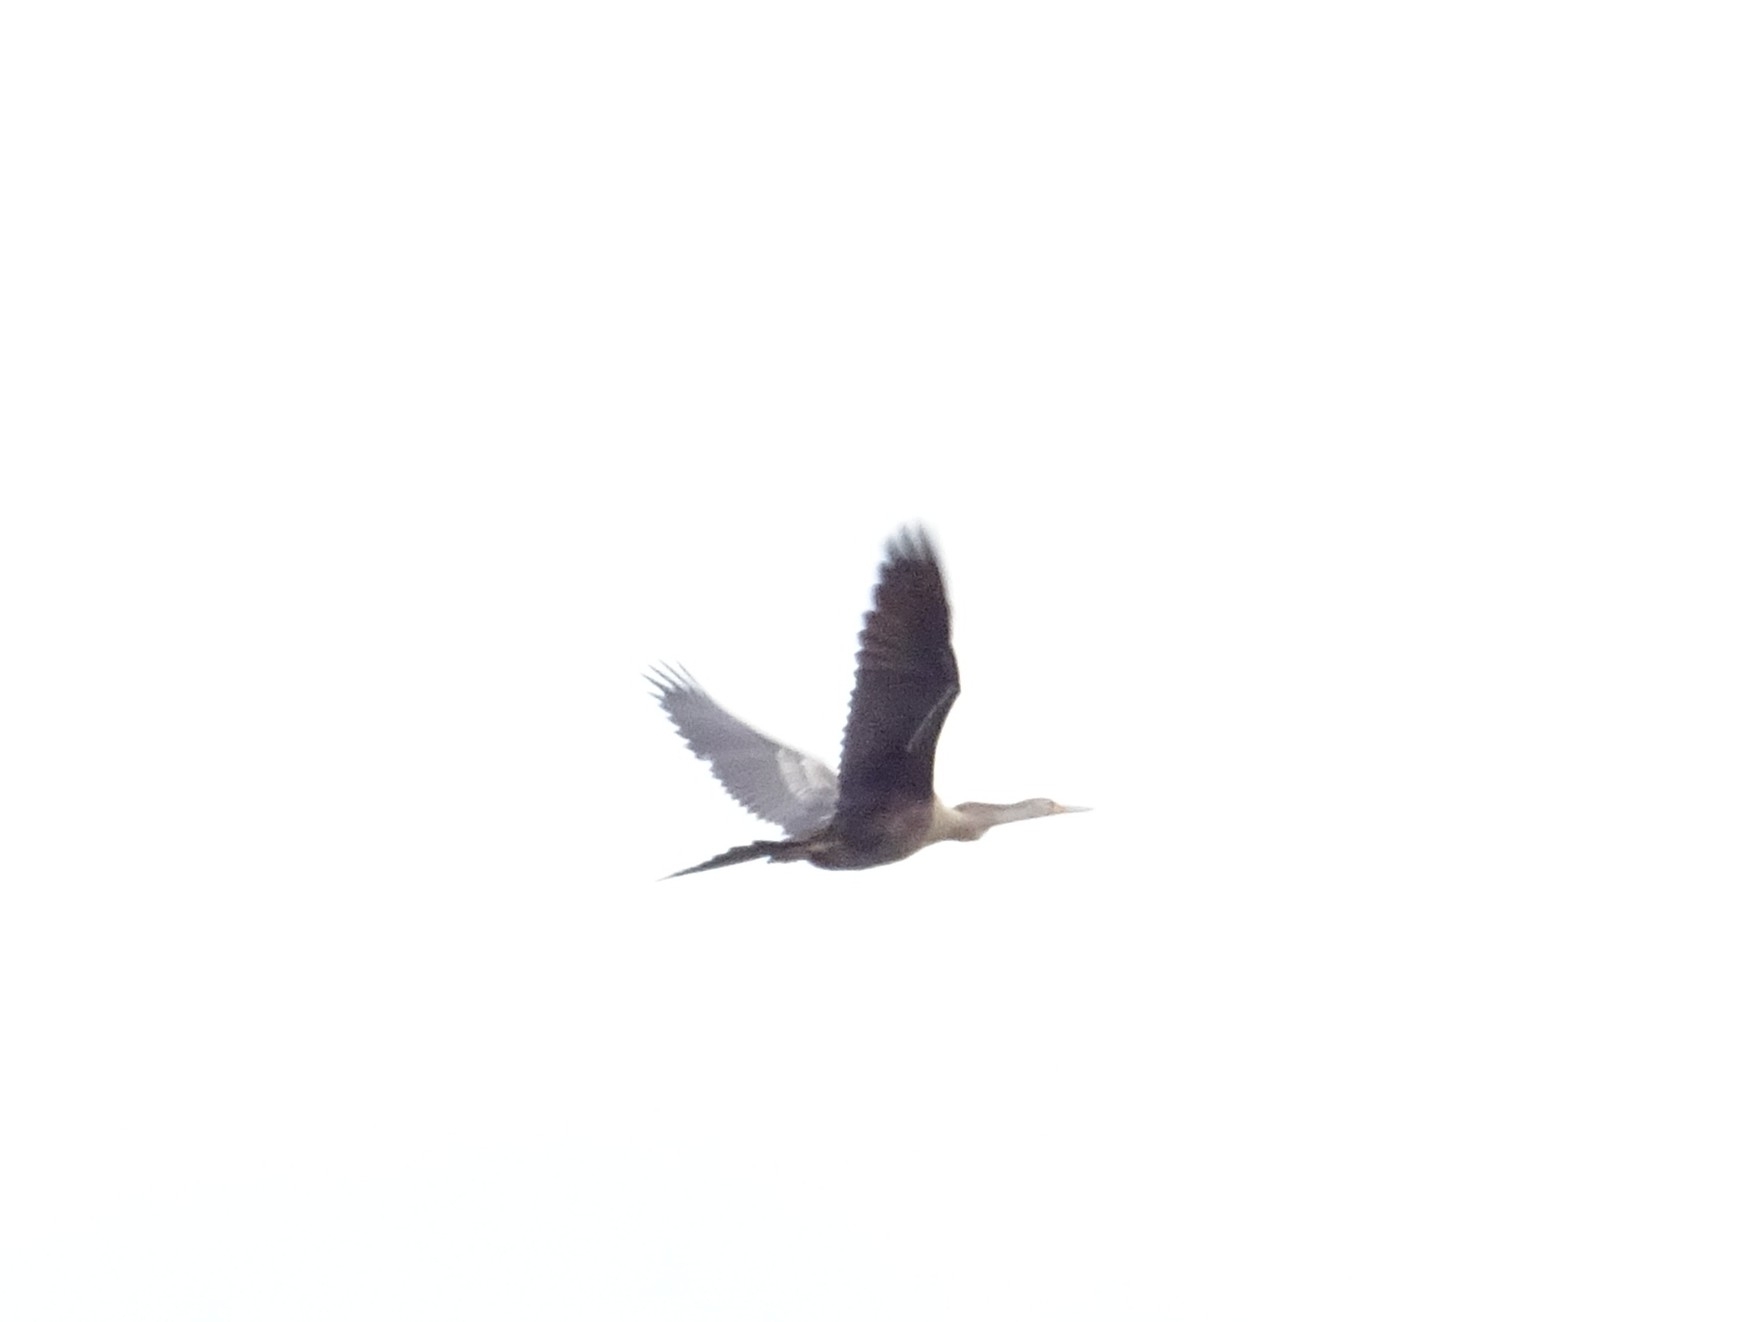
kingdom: Animalia
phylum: Chordata
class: Aves
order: Suliformes
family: Anhingidae
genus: Anhinga
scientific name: Anhinga anhinga
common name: Anhinga
